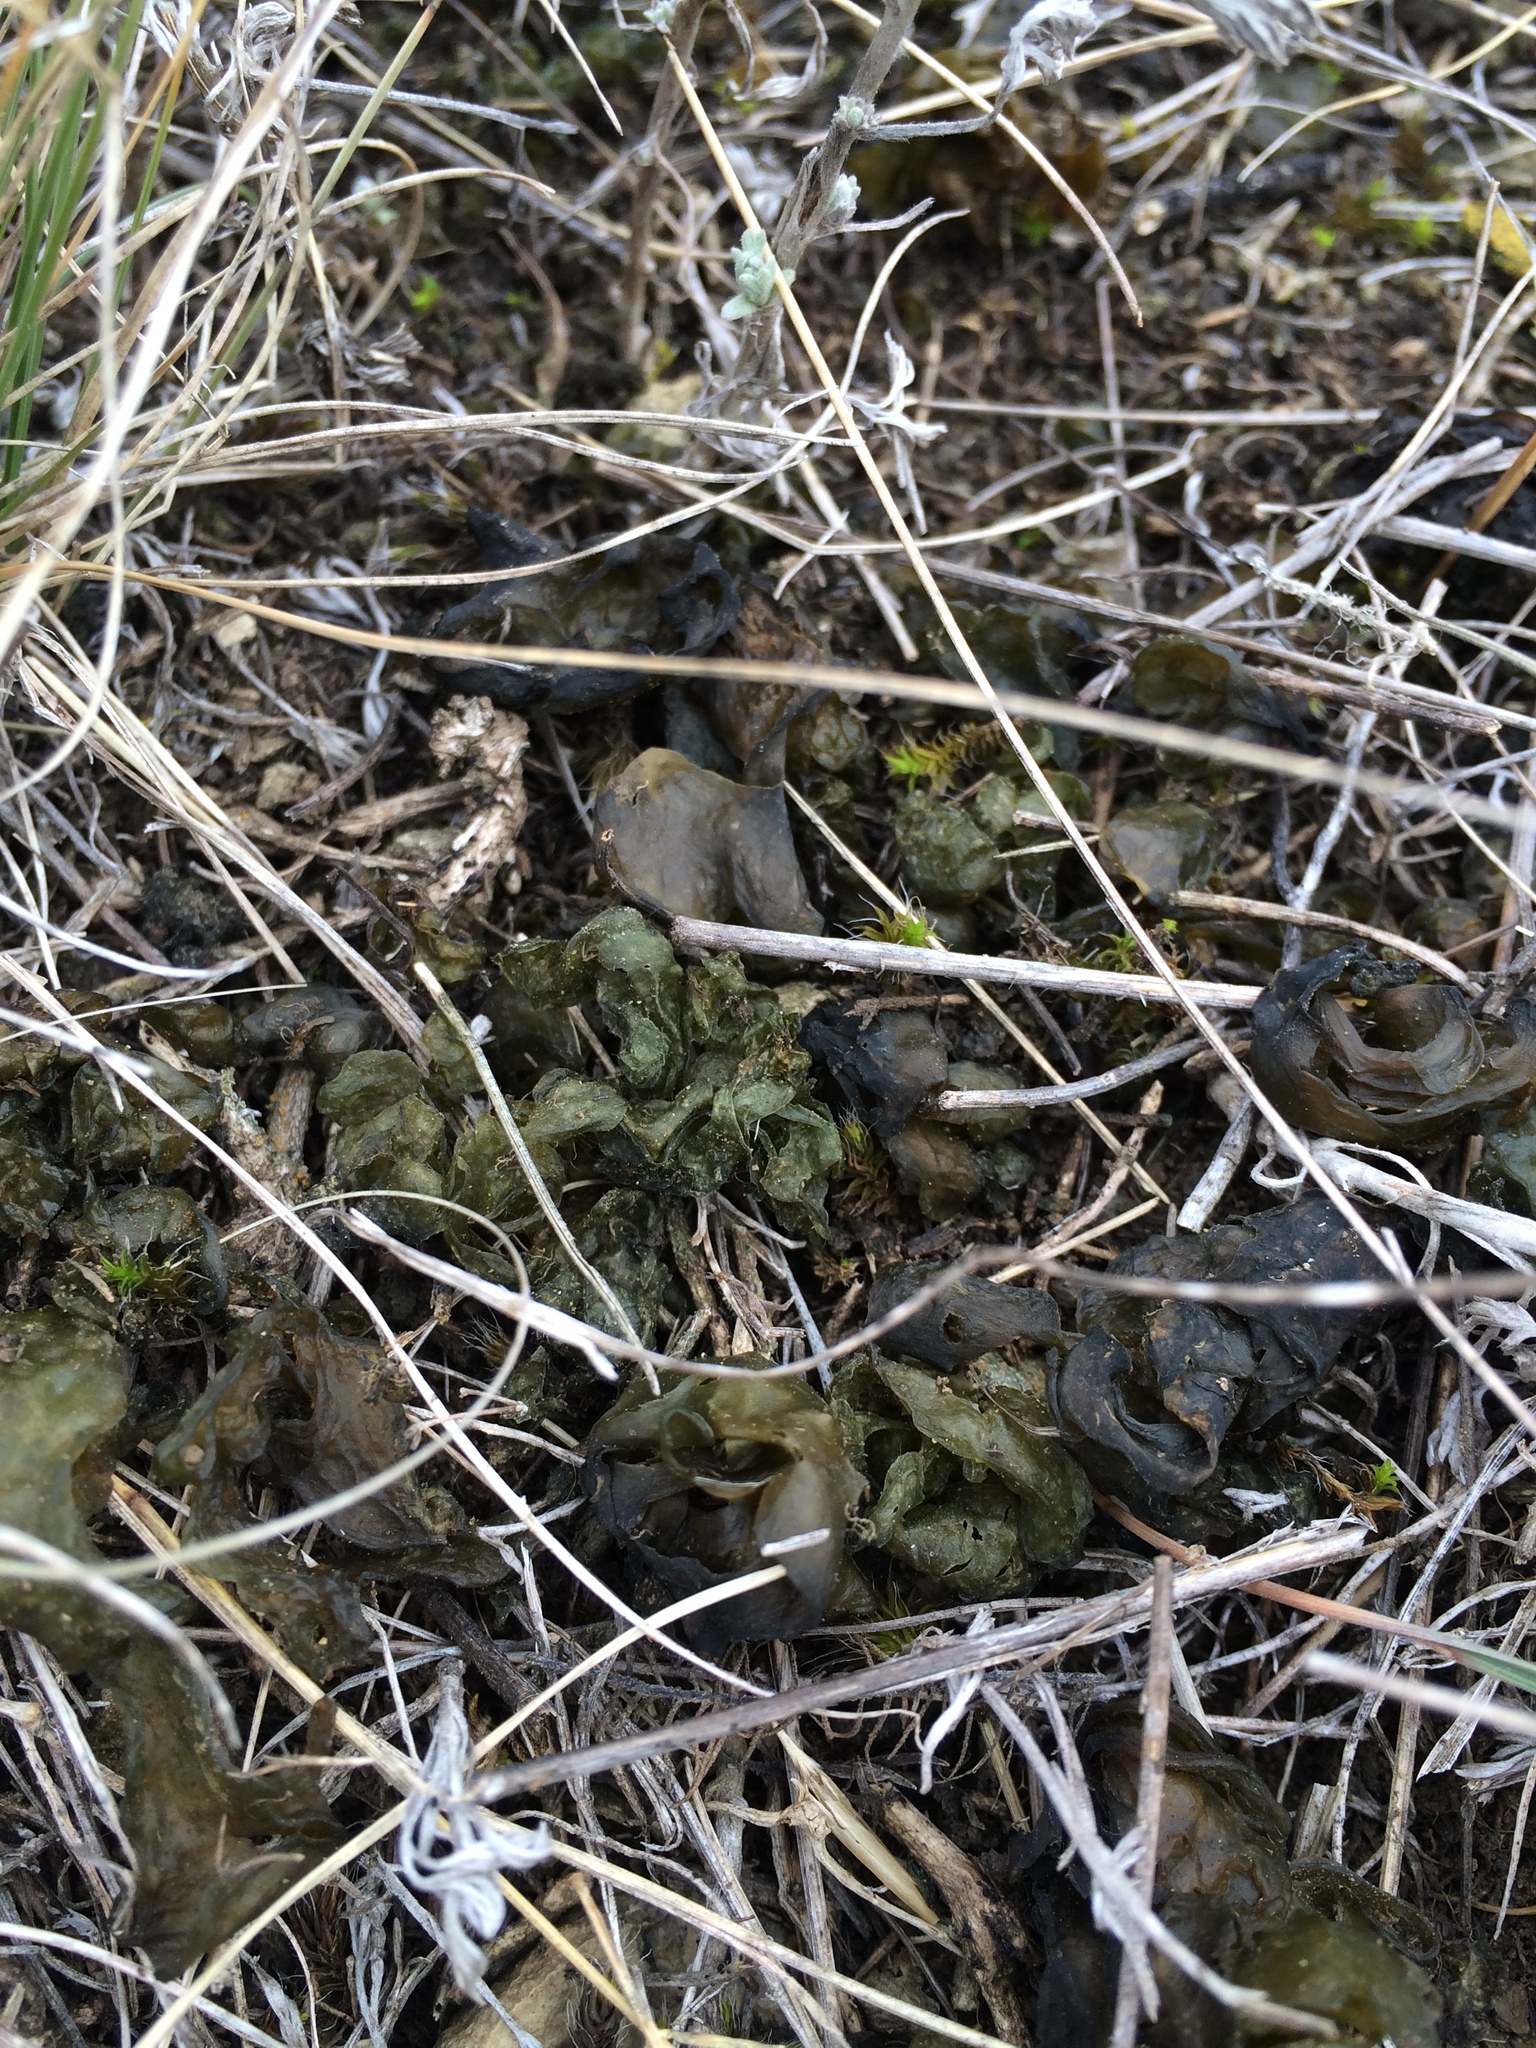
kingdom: Bacteria
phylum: Cyanobacteria
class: Cyanobacteriia
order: Cyanobacteriales
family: Nostocaceae
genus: Nostoc
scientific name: Nostoc commune
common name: Star jelly
